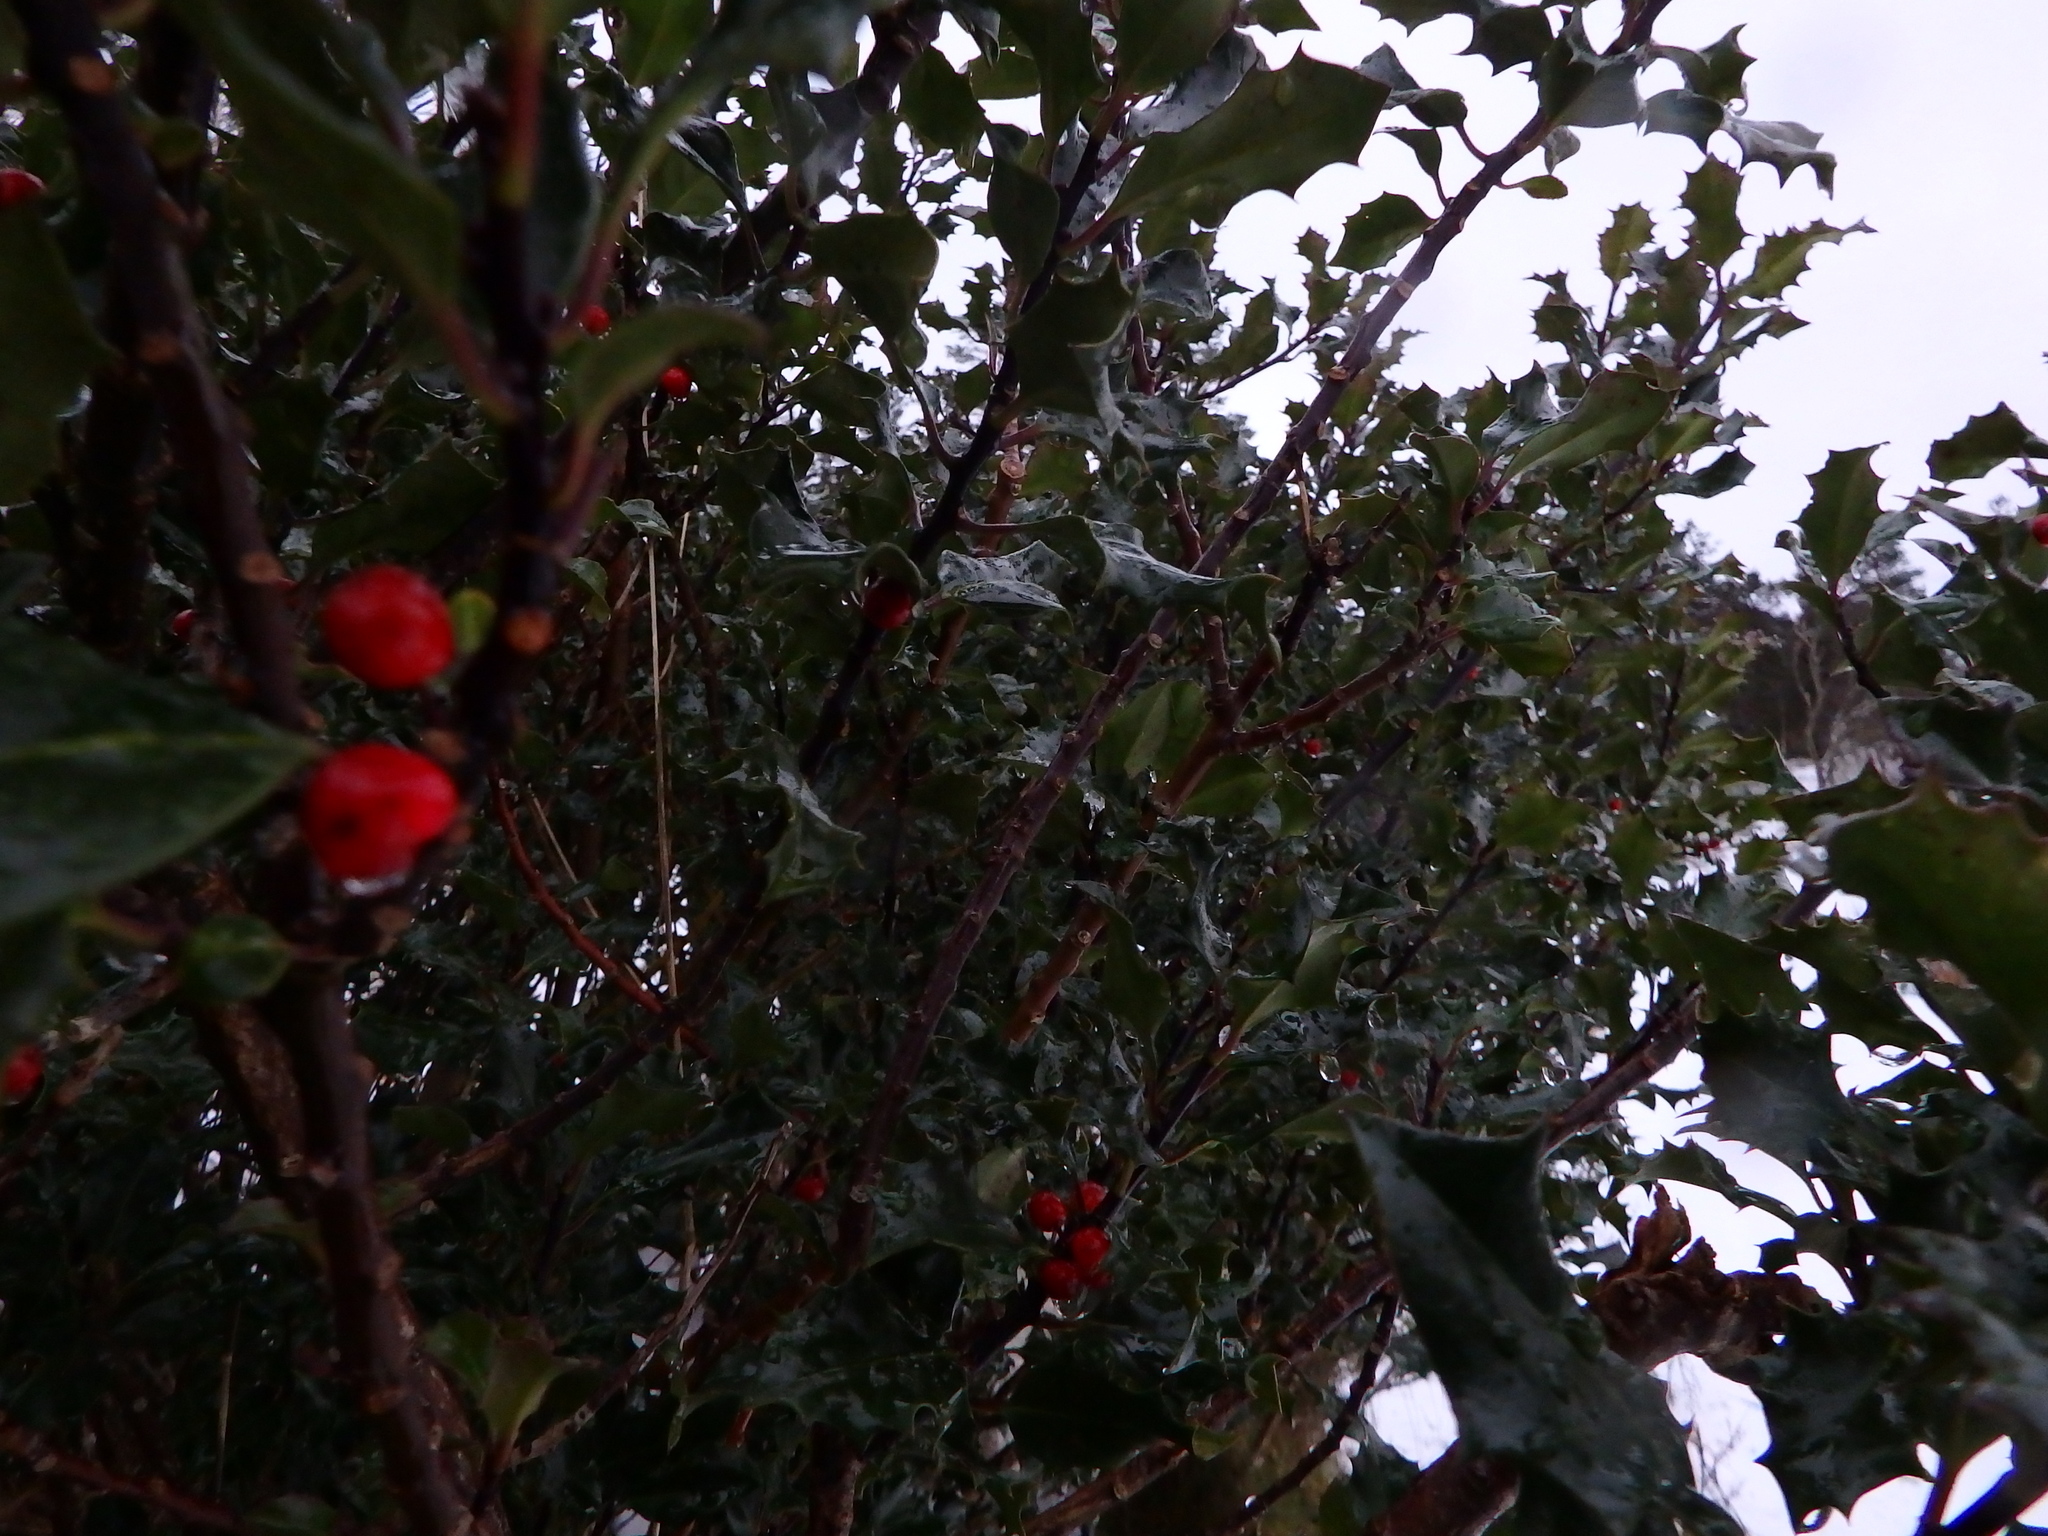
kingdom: Plantae
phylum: Tracheophyta
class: Magnoliopsida
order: Aquifoliales
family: Aquifoliaceae
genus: Ilex
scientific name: Ilex aquifolium
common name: English holly
